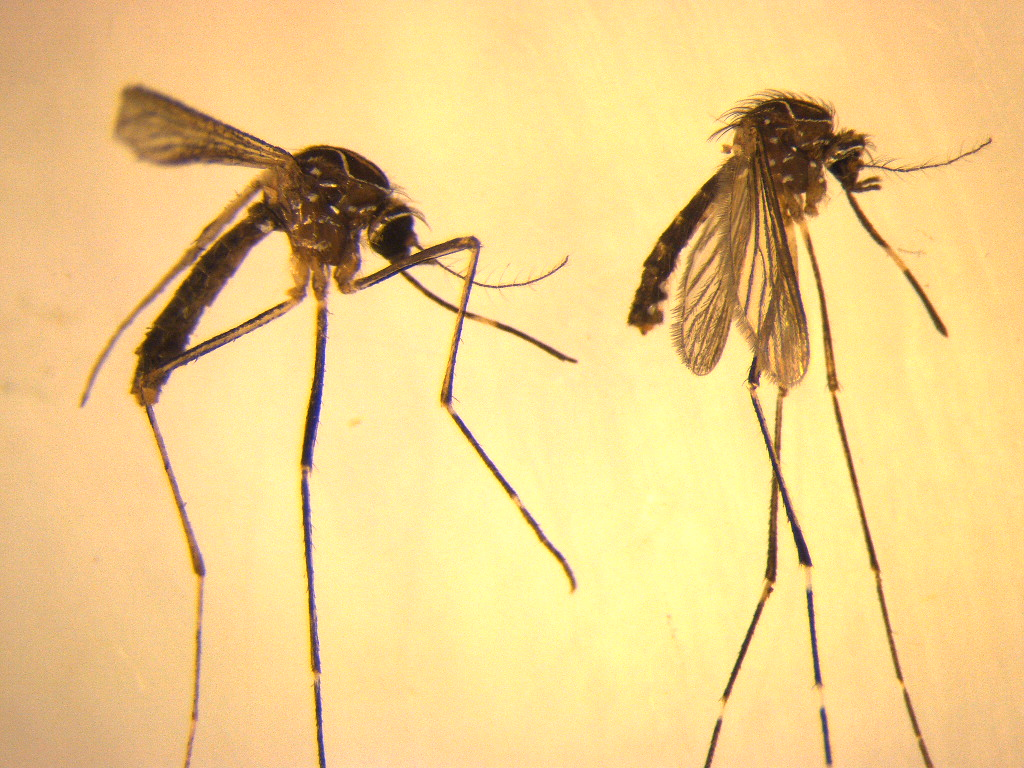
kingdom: Animalia
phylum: Arthropoda
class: Insecta
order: Diptera
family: Culicidae
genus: Aedes
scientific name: Aedes notoscriptus
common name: Australian backyard mosquito
